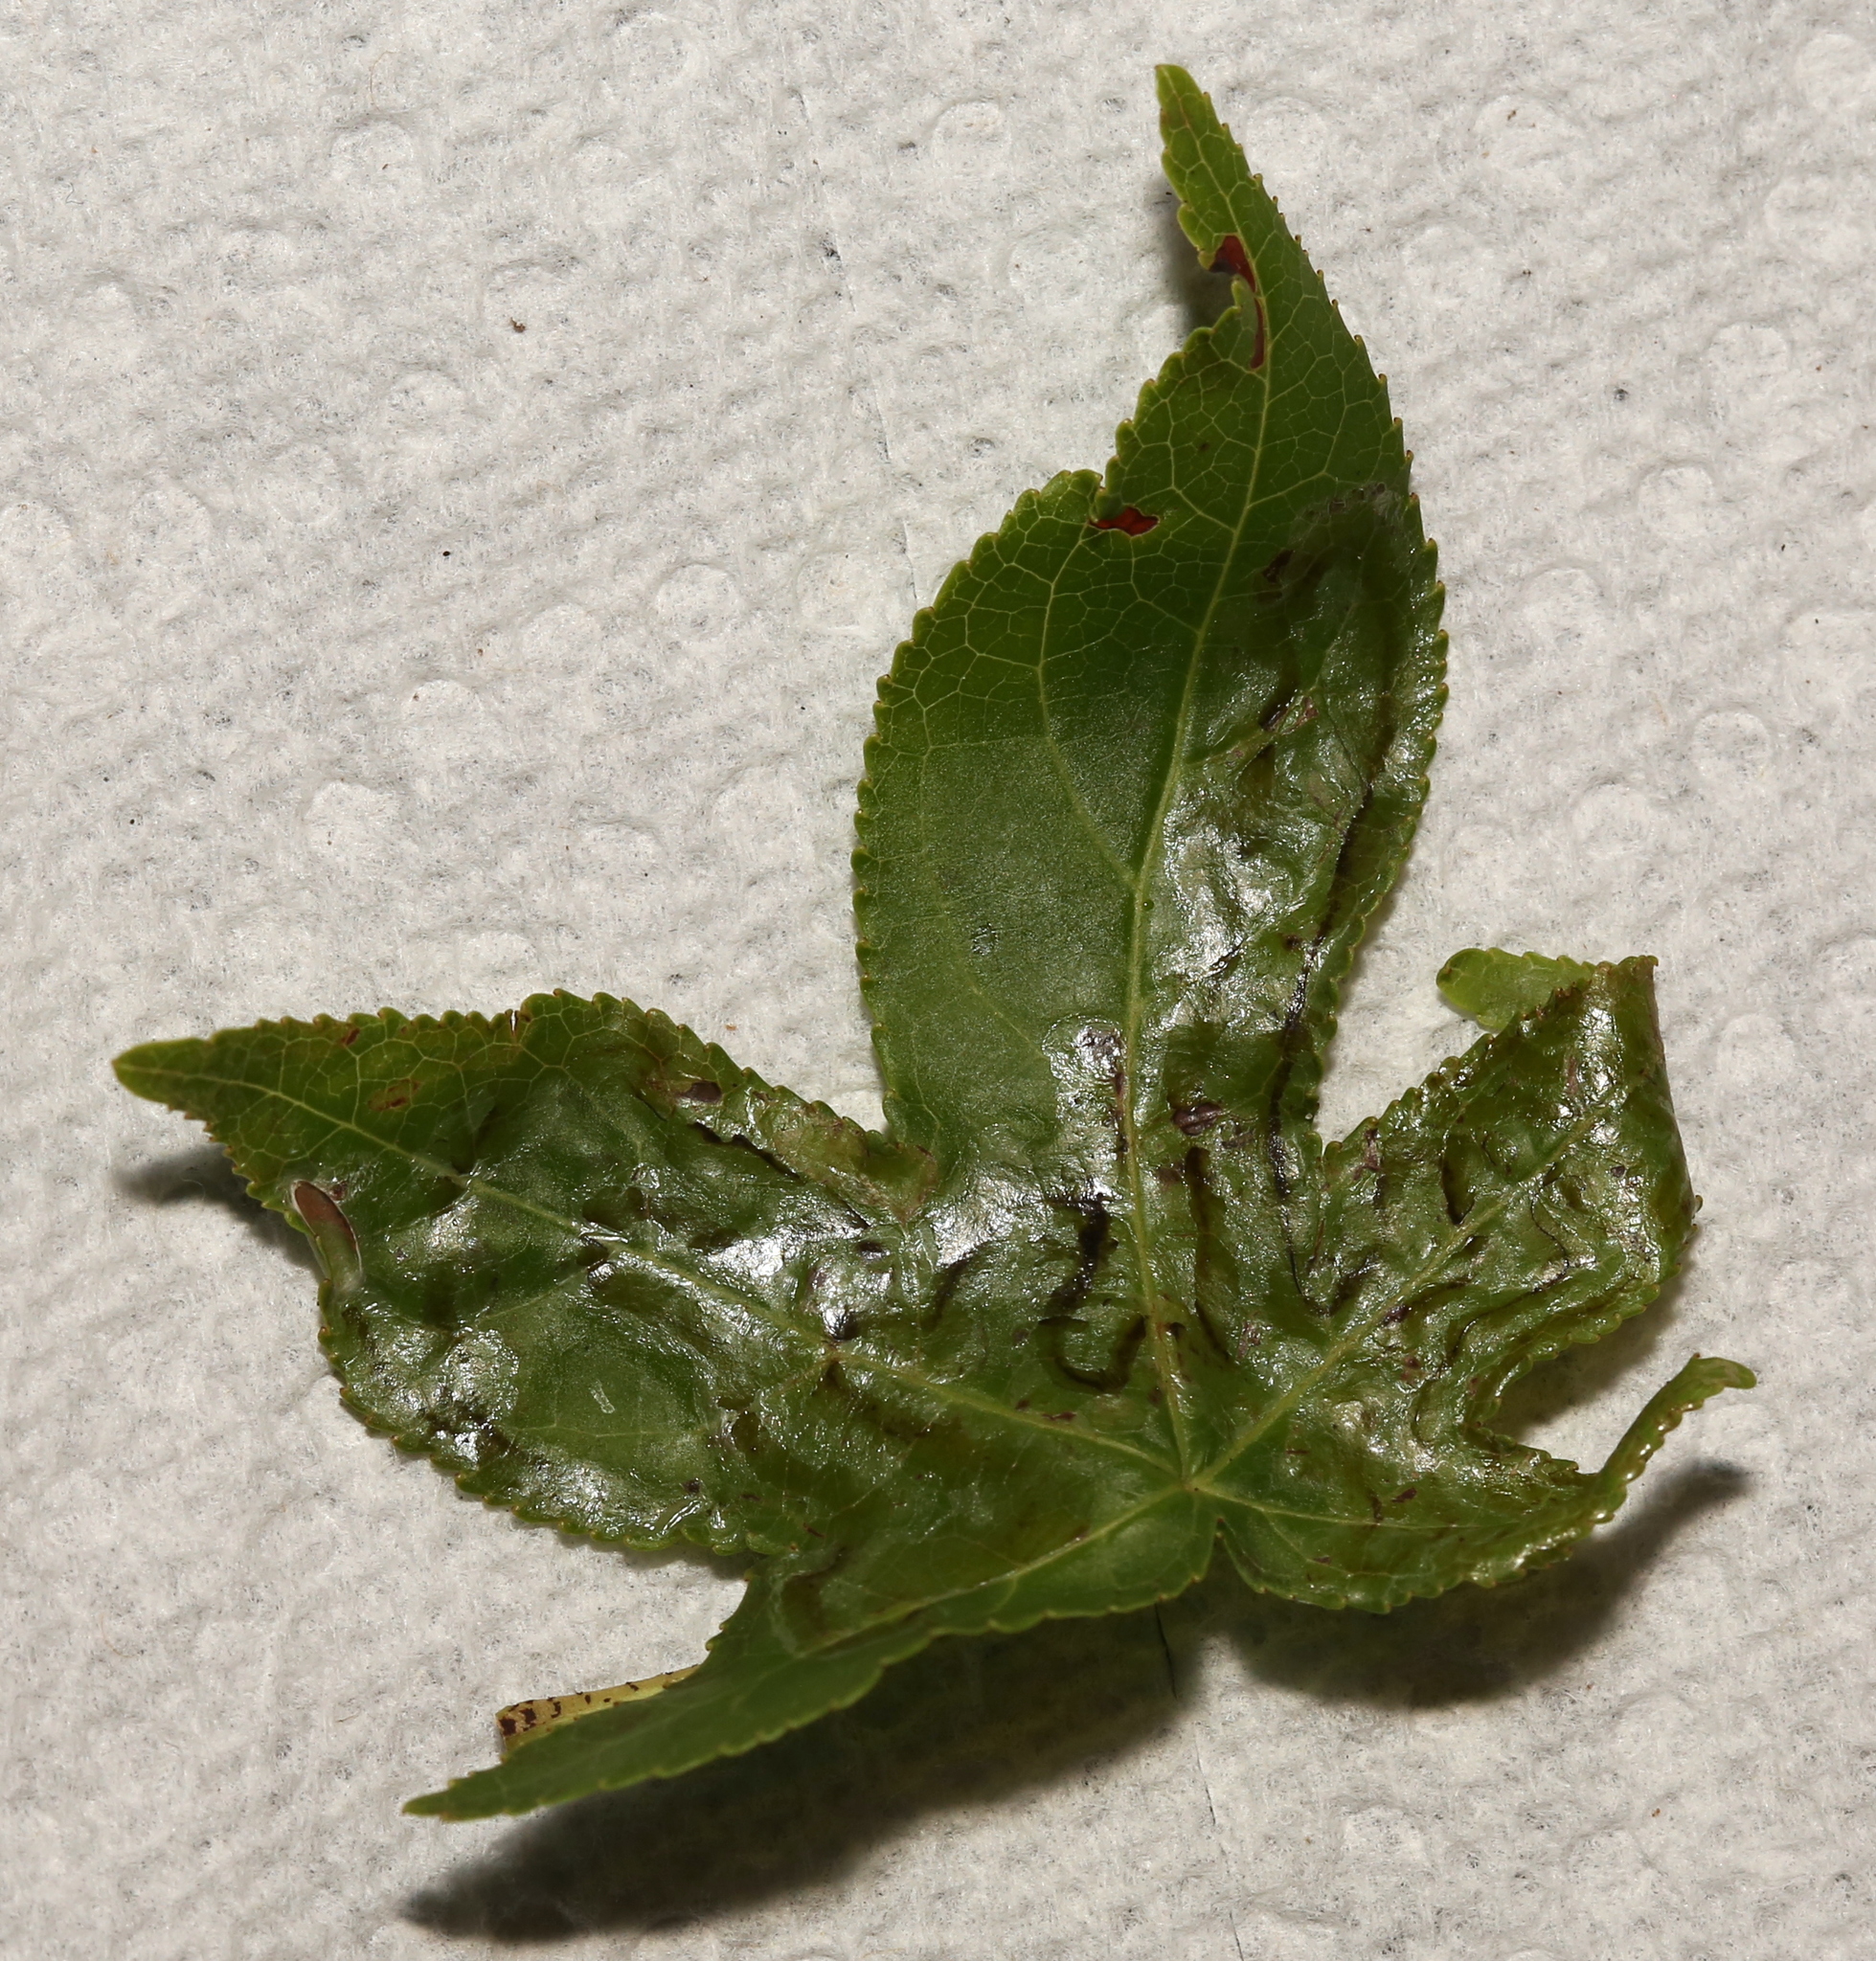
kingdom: Animalia
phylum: Arthropoda
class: Insecta
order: Lepidoptera
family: Gracillariidae
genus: Phyllocnistis
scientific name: Phyllocnistis liquidambarisella
